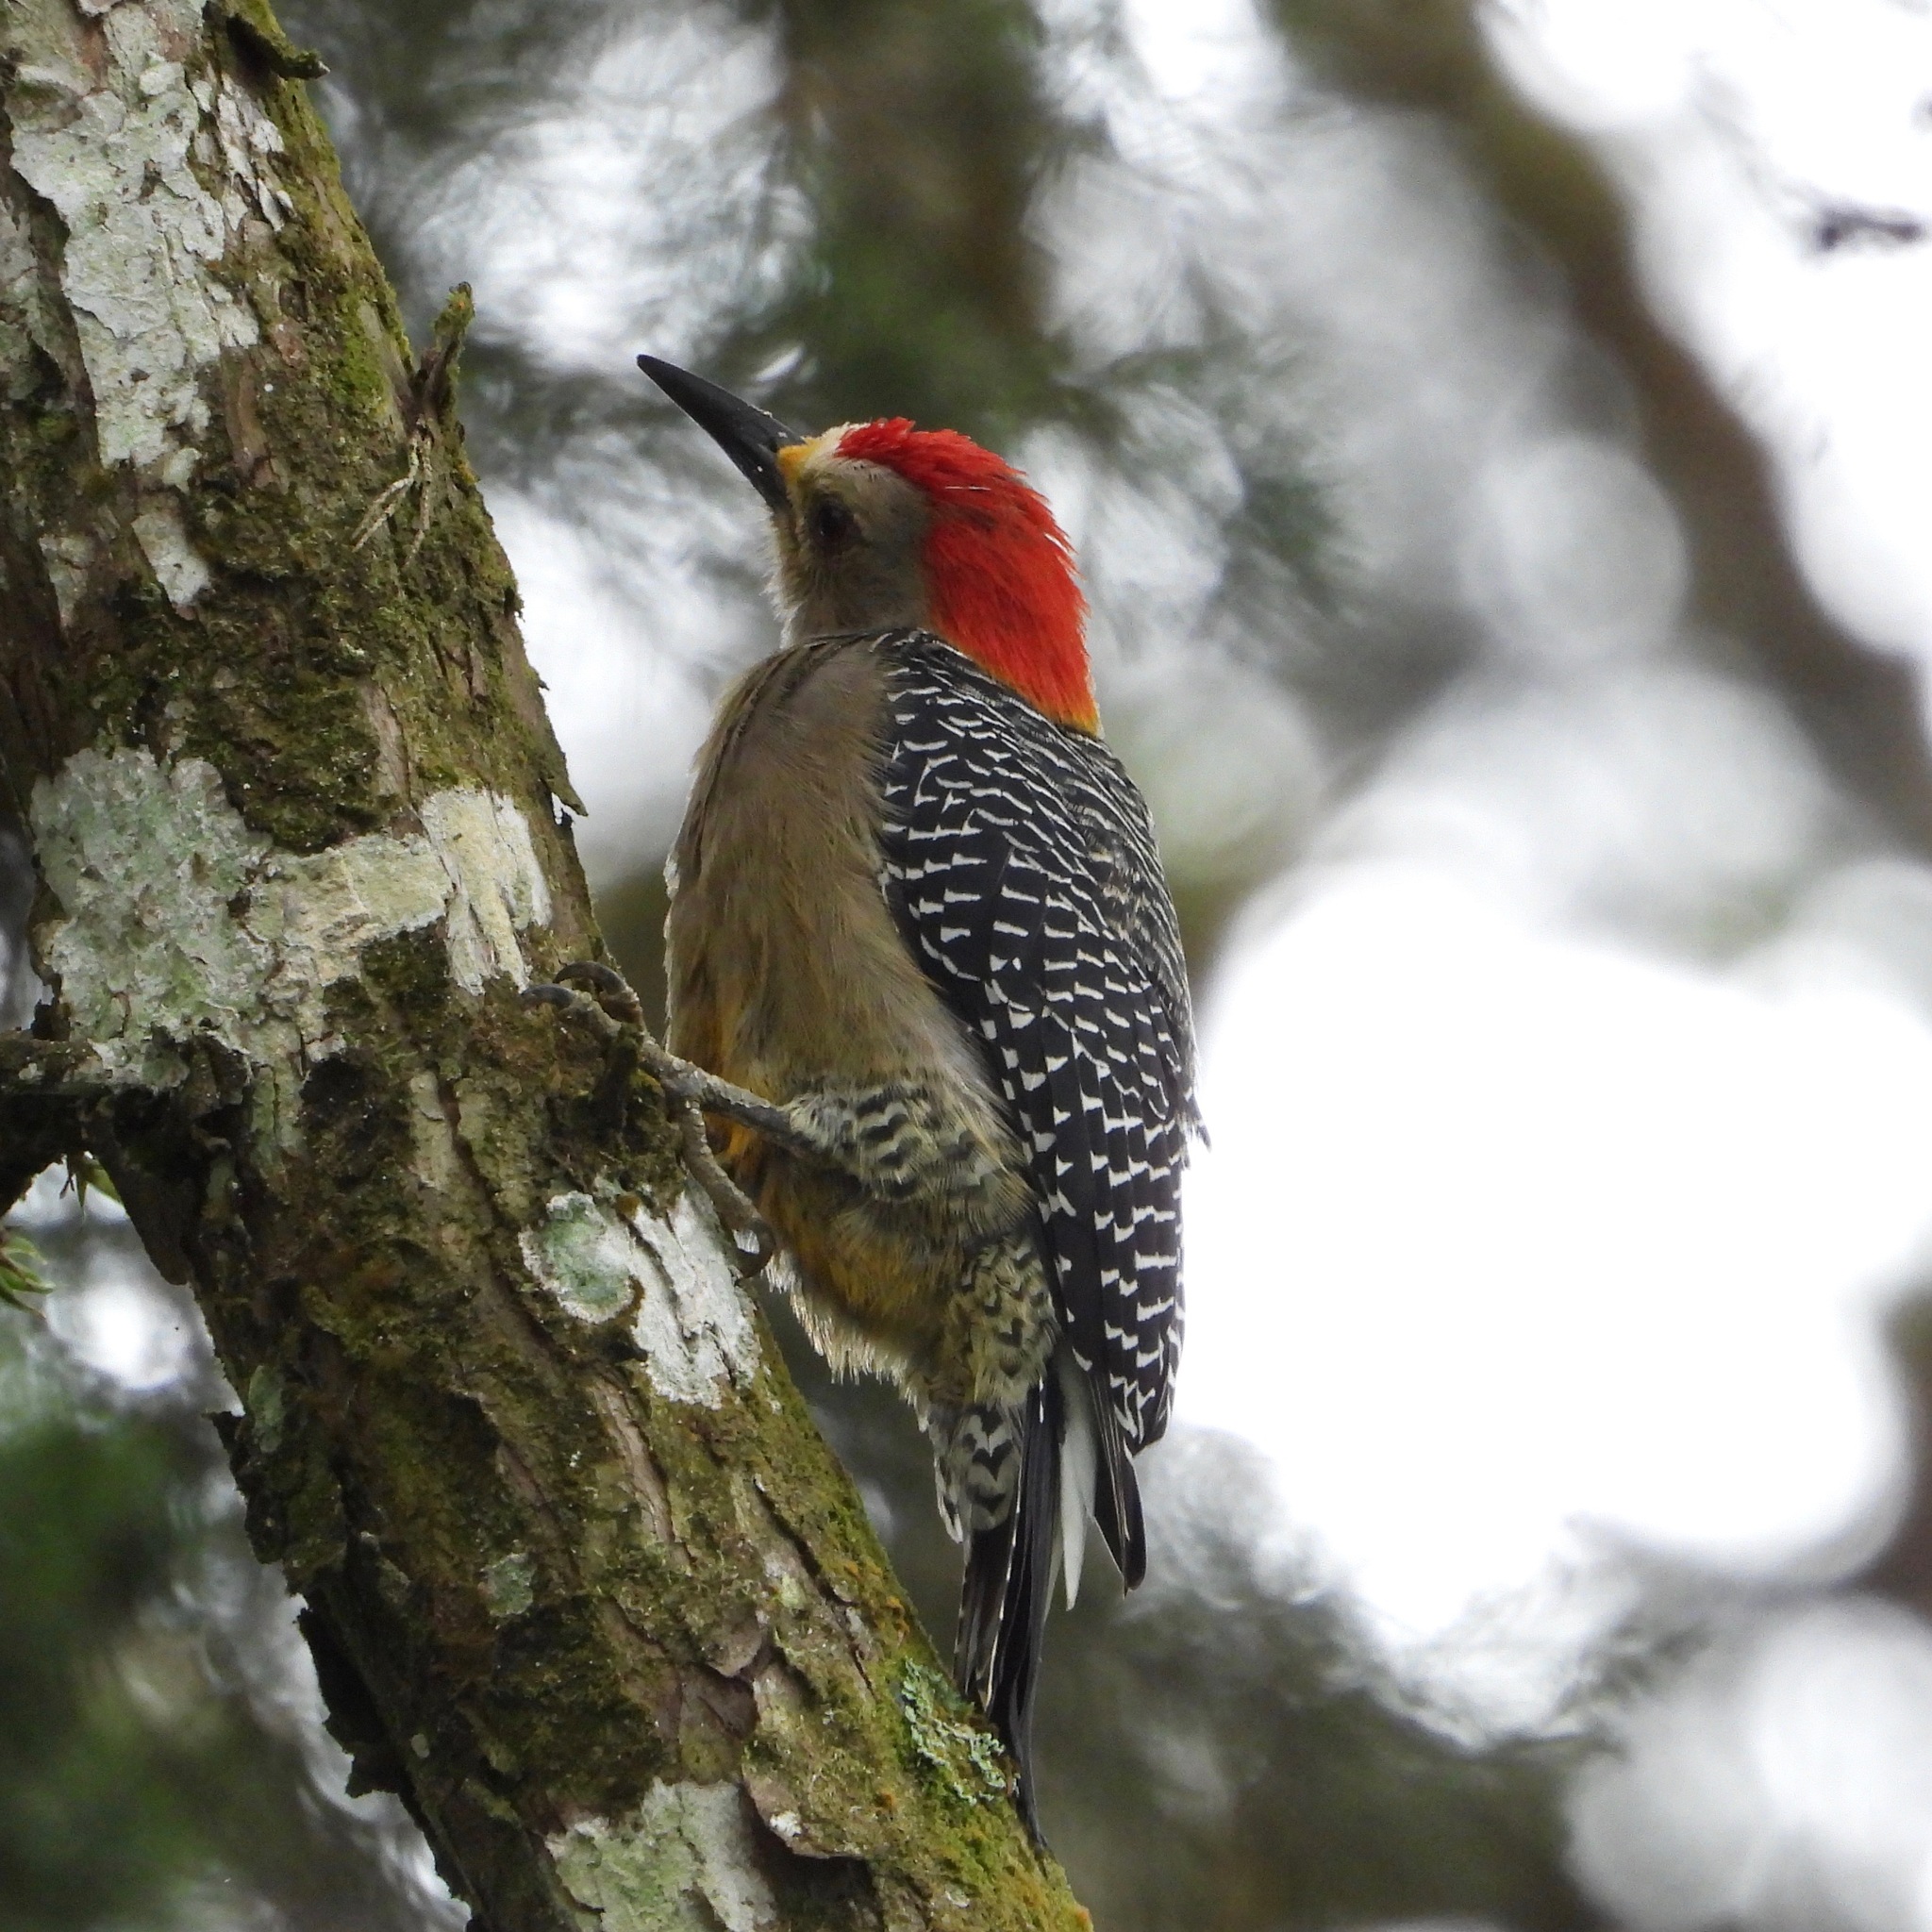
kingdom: Animalia
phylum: Chordata
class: Aves
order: Piciformes
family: Picidae
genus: Melanerpes
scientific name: Melanerpes aurifrons
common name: Golden-fronted woodpecker
